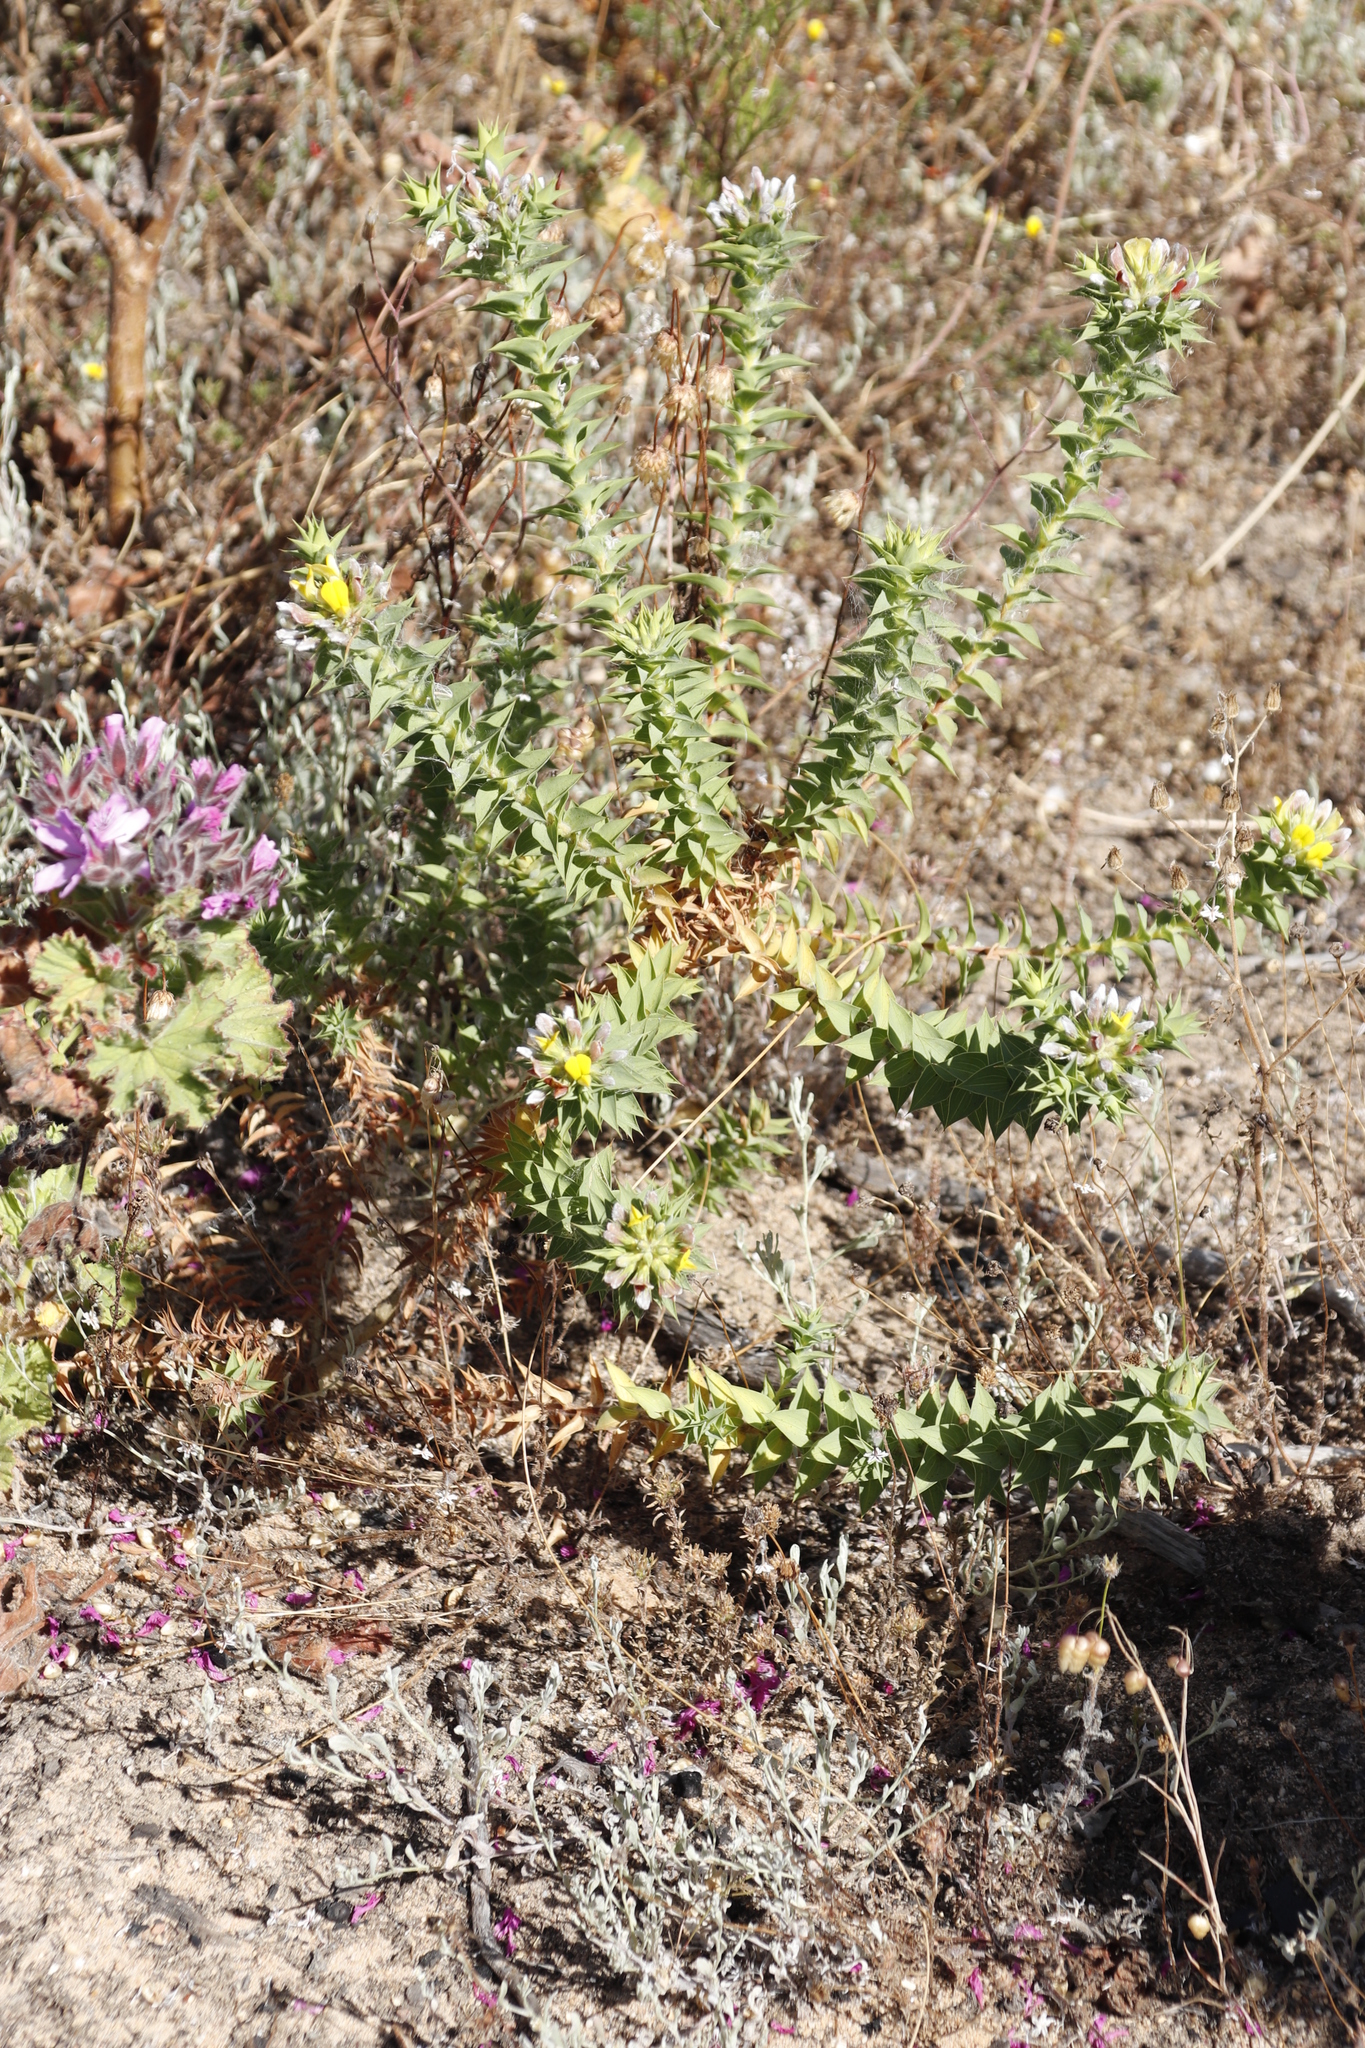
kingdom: Plantae
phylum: Tracheophyta
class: Magnoliopsida
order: Fabales
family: Fabaceae
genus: Aspalathus
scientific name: Aspalathus cordata
